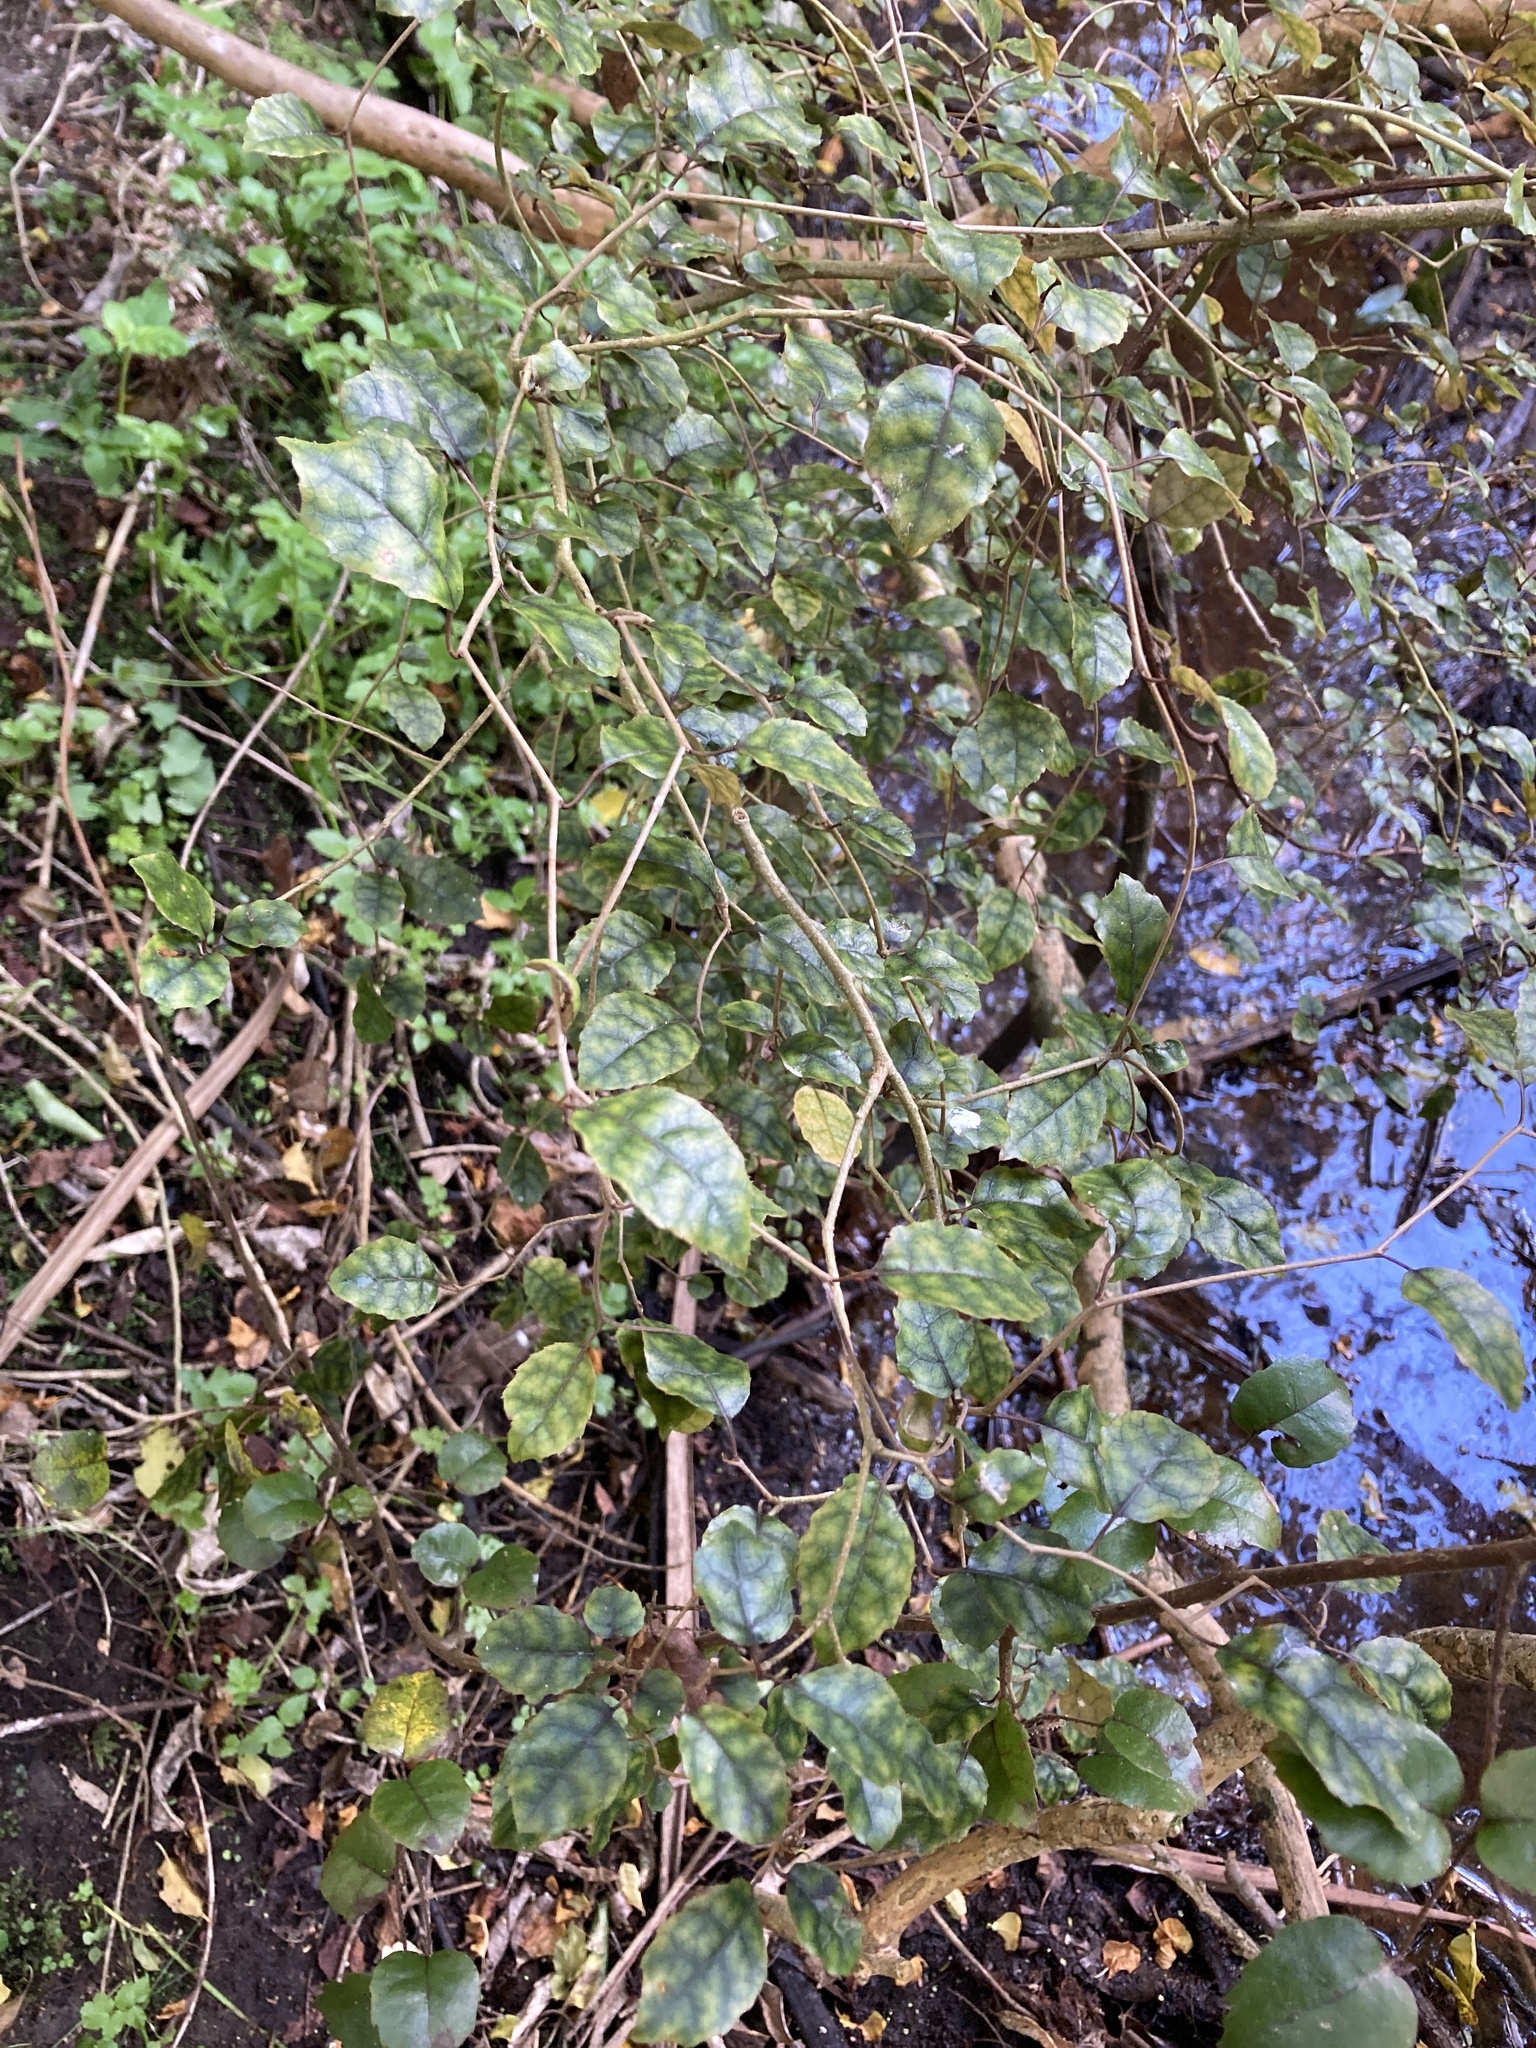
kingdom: Plantae
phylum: Tracheophyta
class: Magnoliopsida
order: Asterales
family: Rousseaceae
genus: Carpodetus
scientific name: Carpodetus serratus
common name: White mapau
